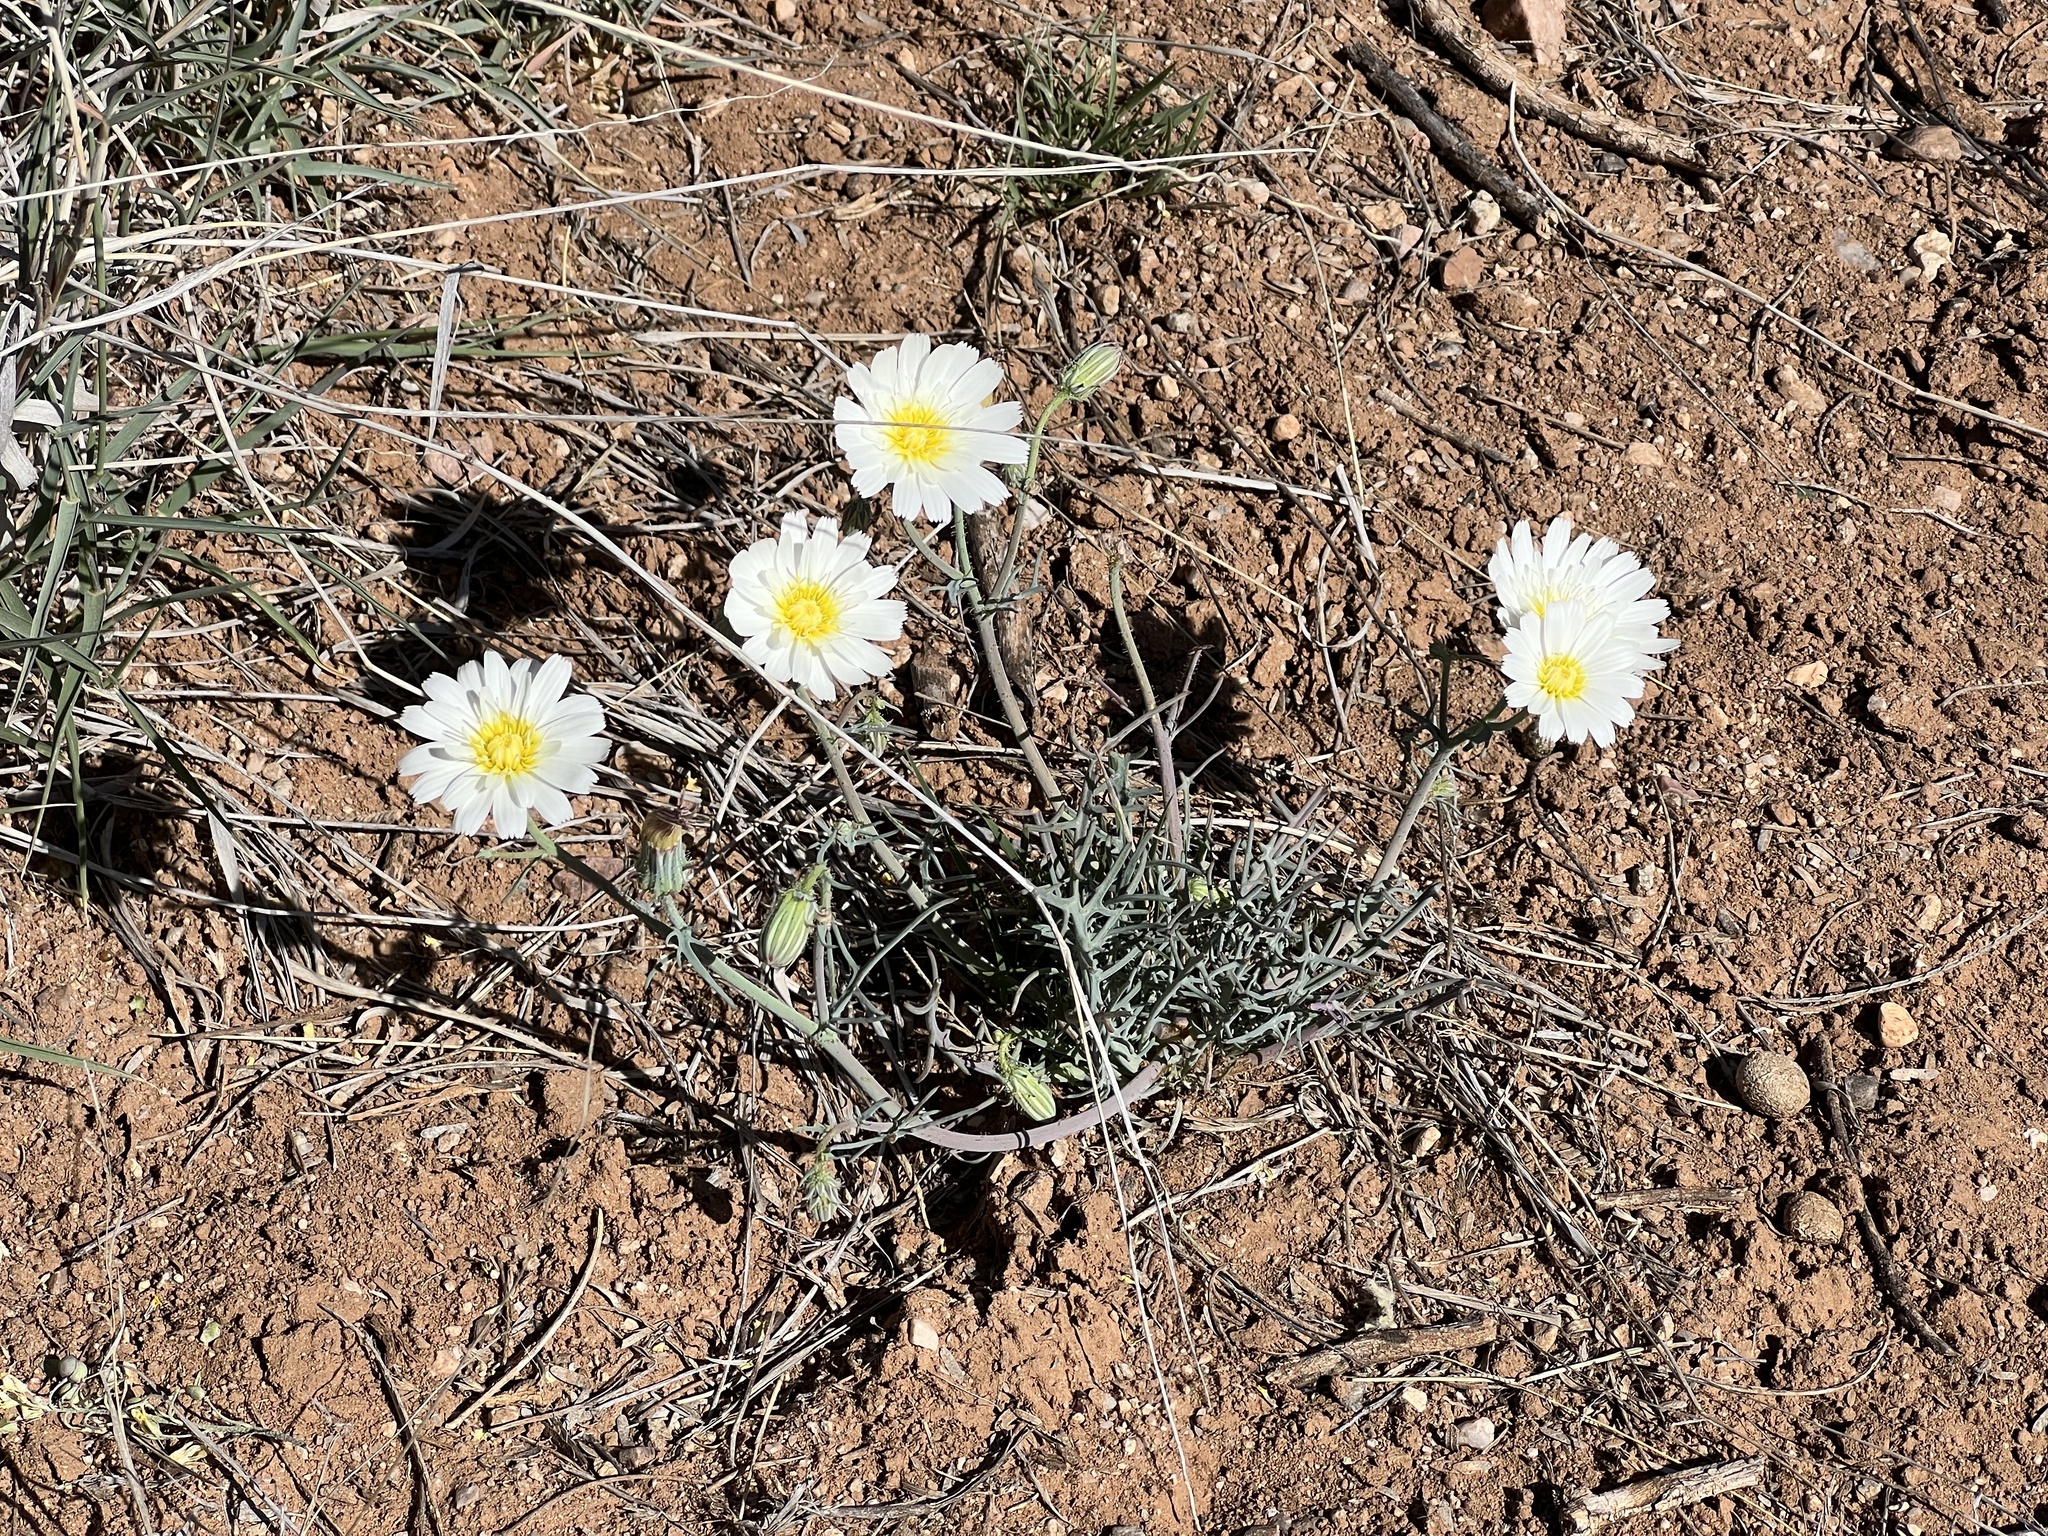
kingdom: Plantae
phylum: Tracheophyta
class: Magnoliopsida
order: Asterales
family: Asteraceae
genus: Calycoseris
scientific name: Calycoseris wrightii
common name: White tackstem
